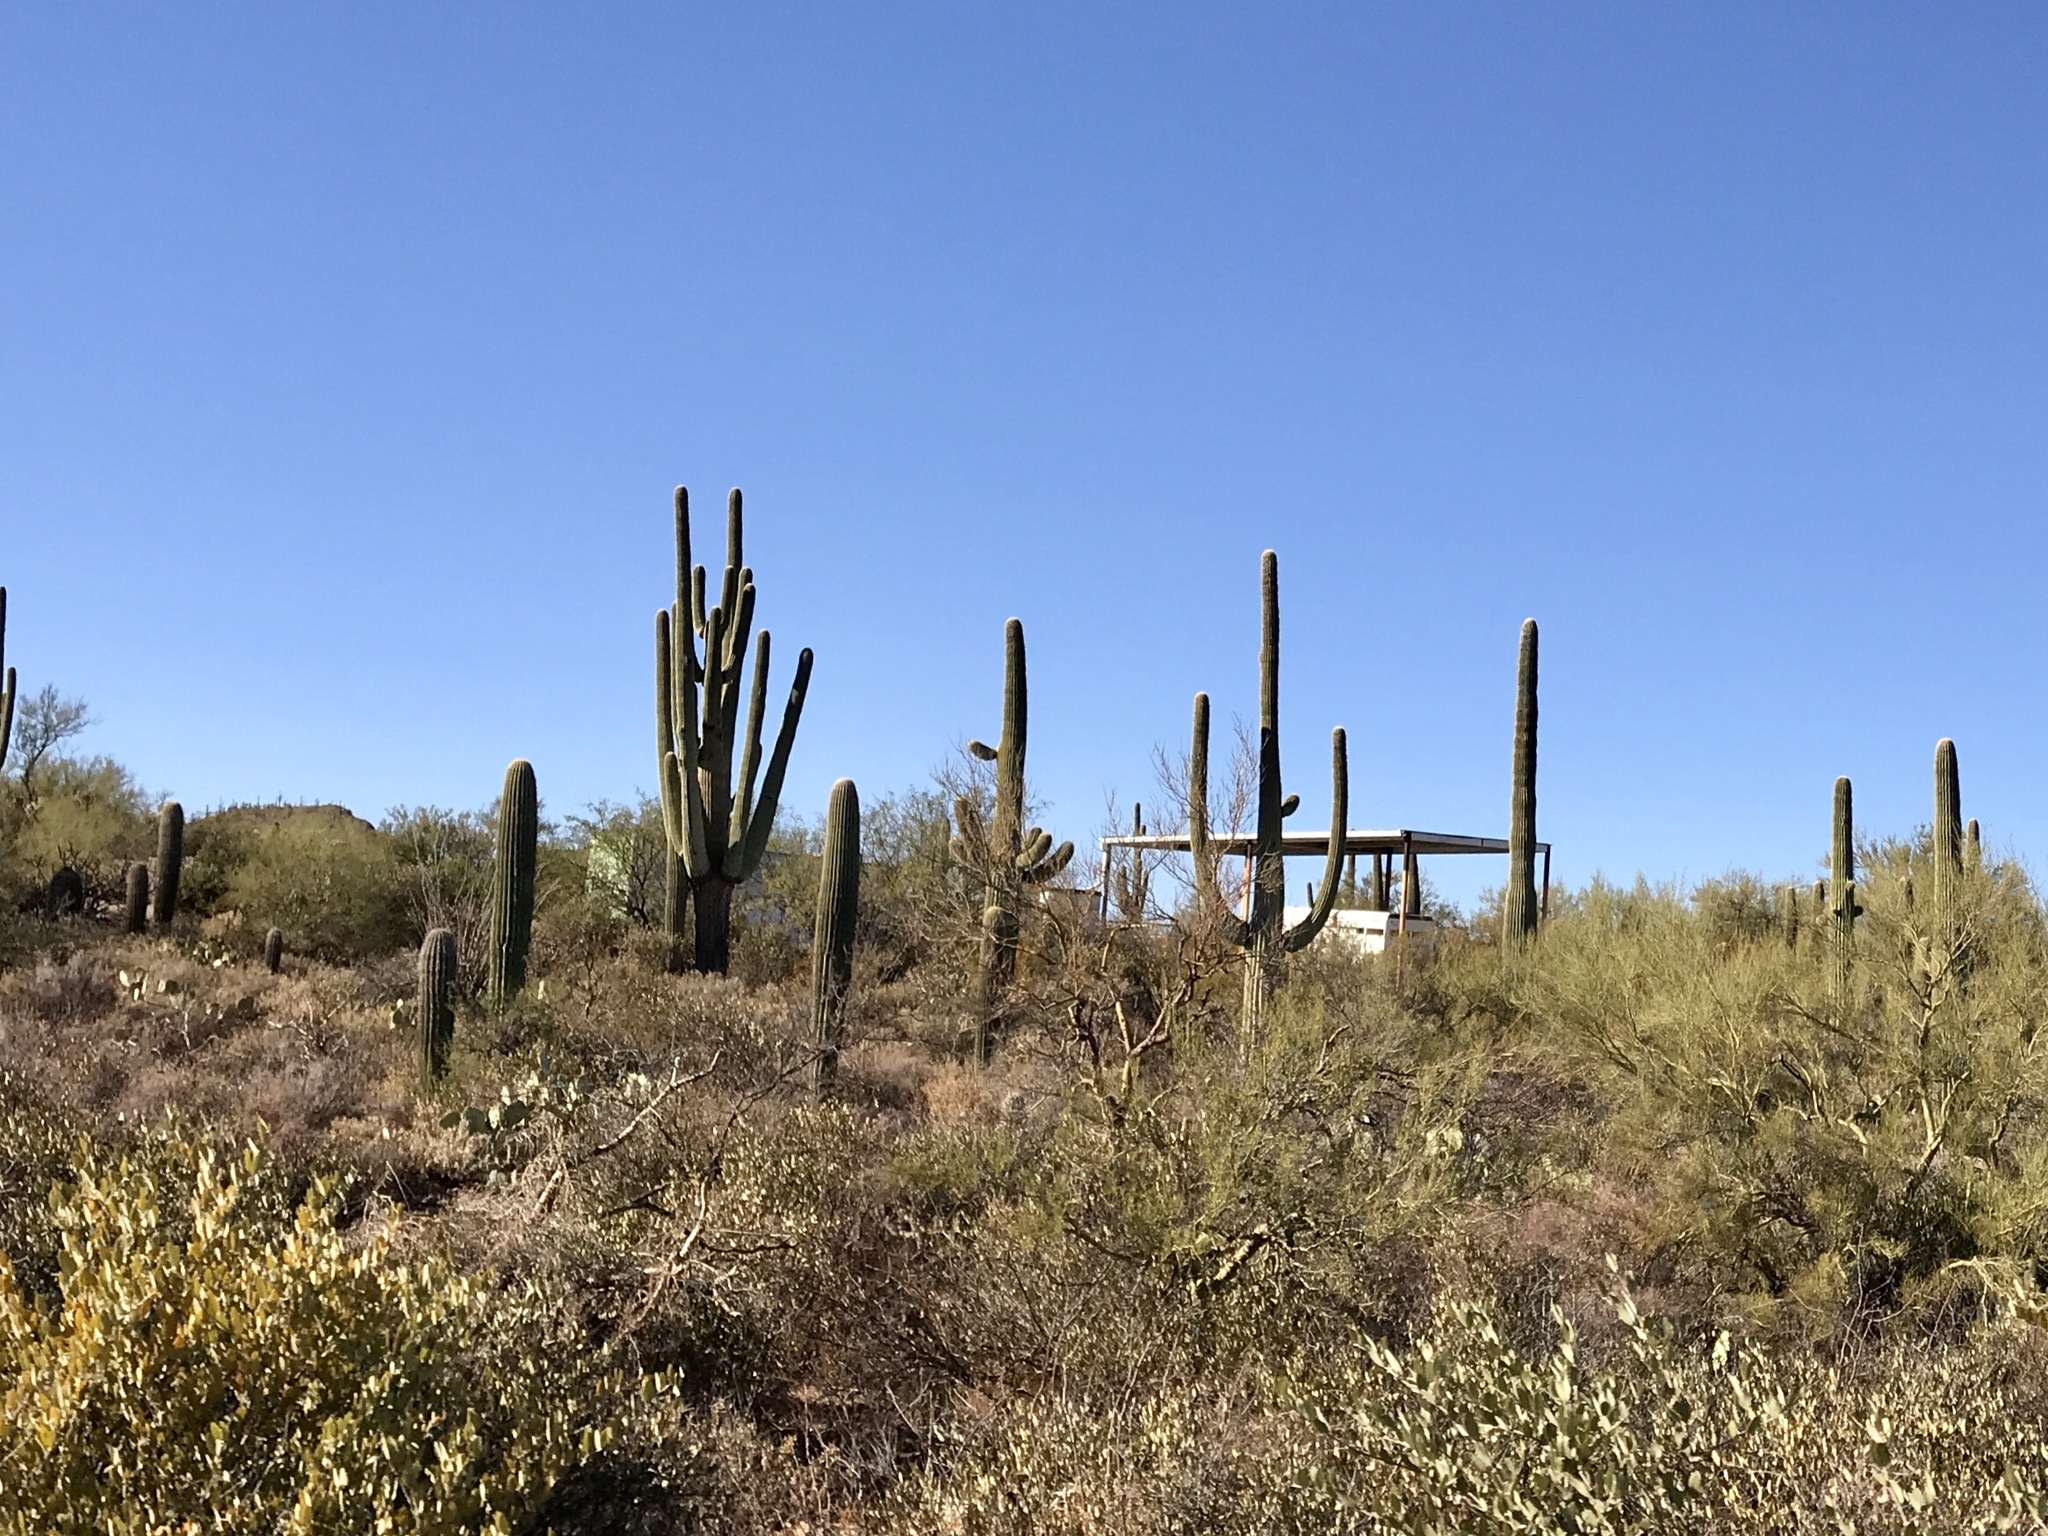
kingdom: Plantae
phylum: Tracheophyta
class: Magnoliopsida
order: Caryophyllales
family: Cactaceae
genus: Carnegiea
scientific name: Carnegiea gigantea
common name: Saguaro
